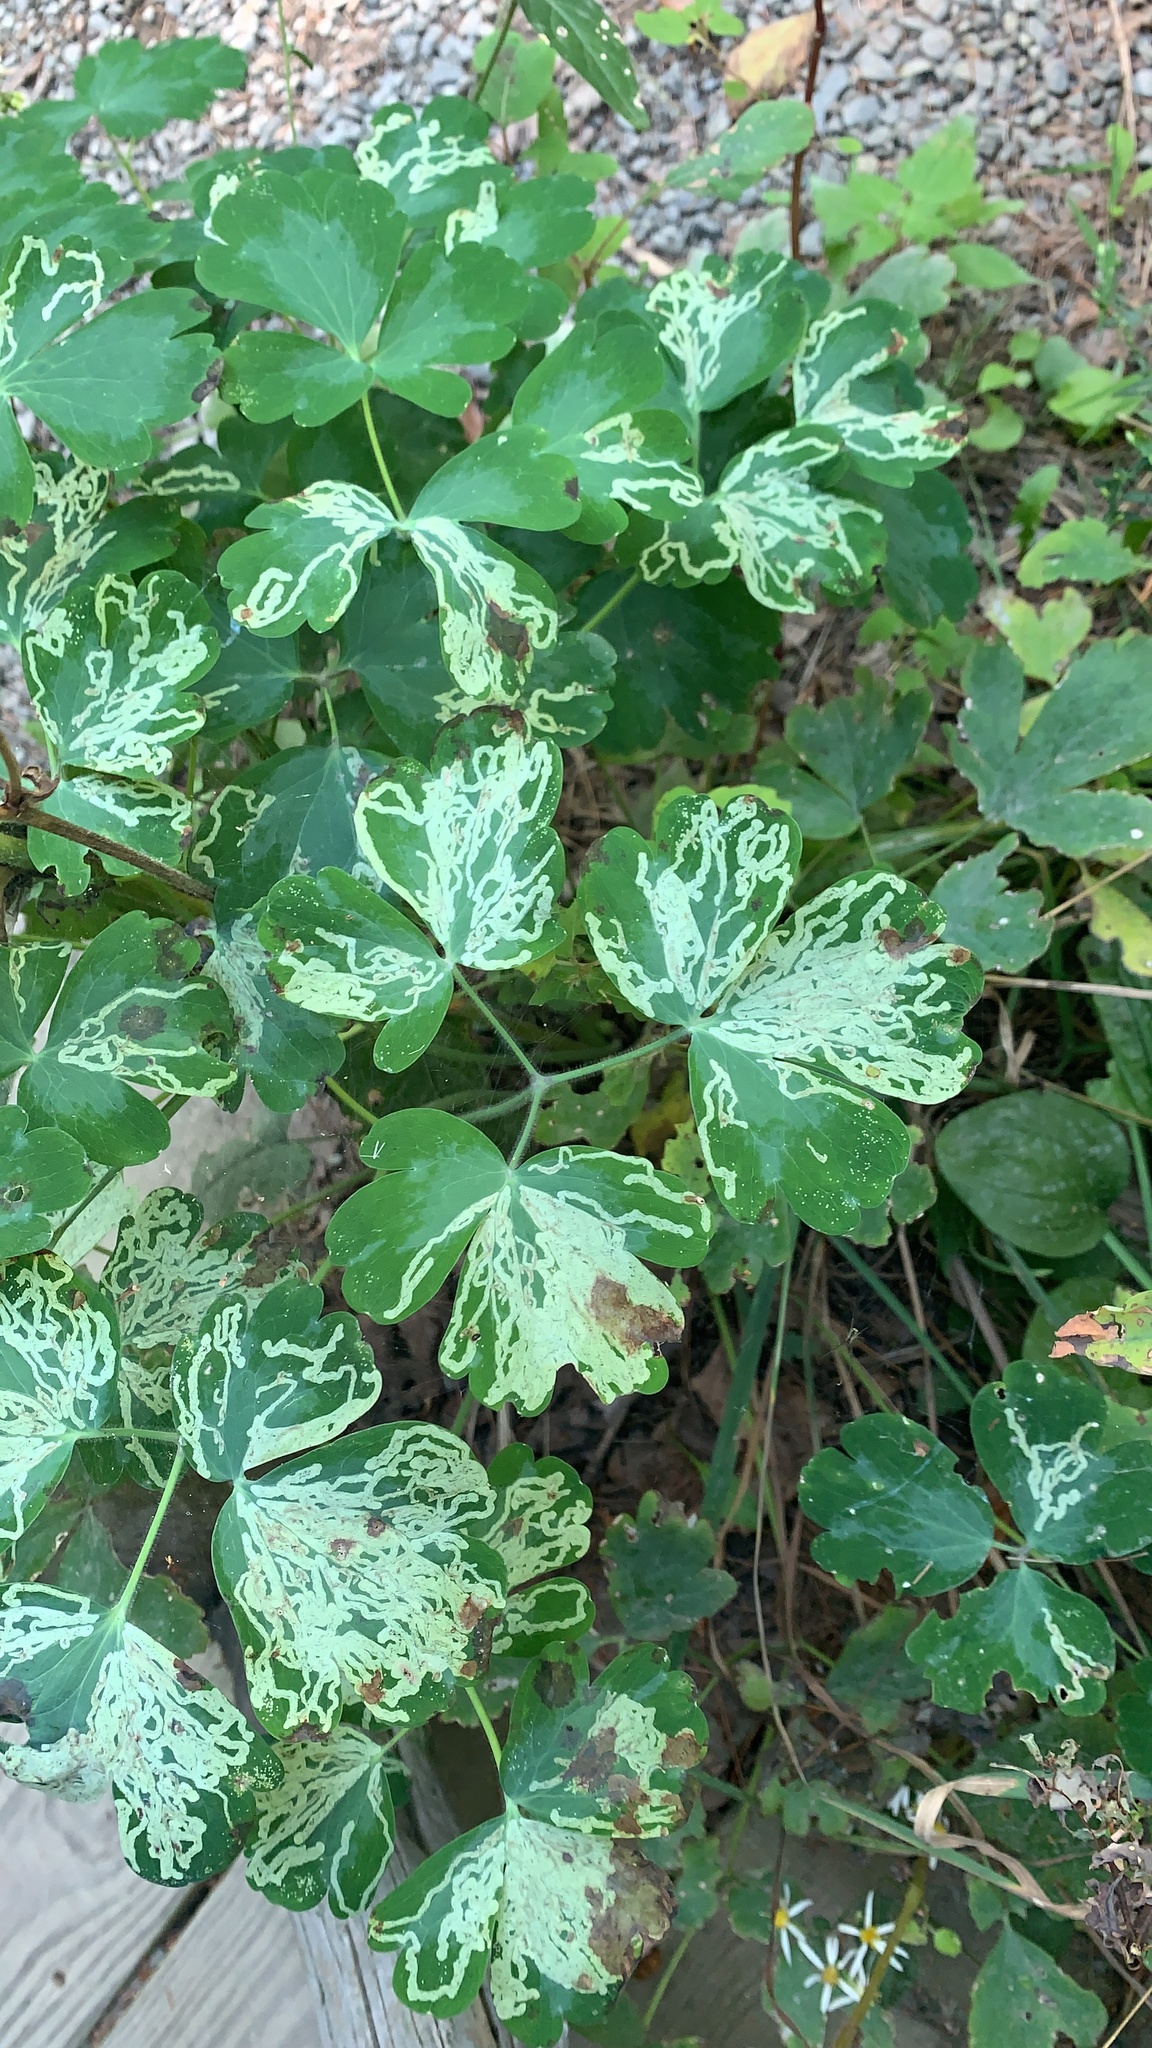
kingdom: Animalia
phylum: Arthropoda
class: Insecta
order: Diptera
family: Agromyzidae
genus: Phytomyza
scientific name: Phytomyza
